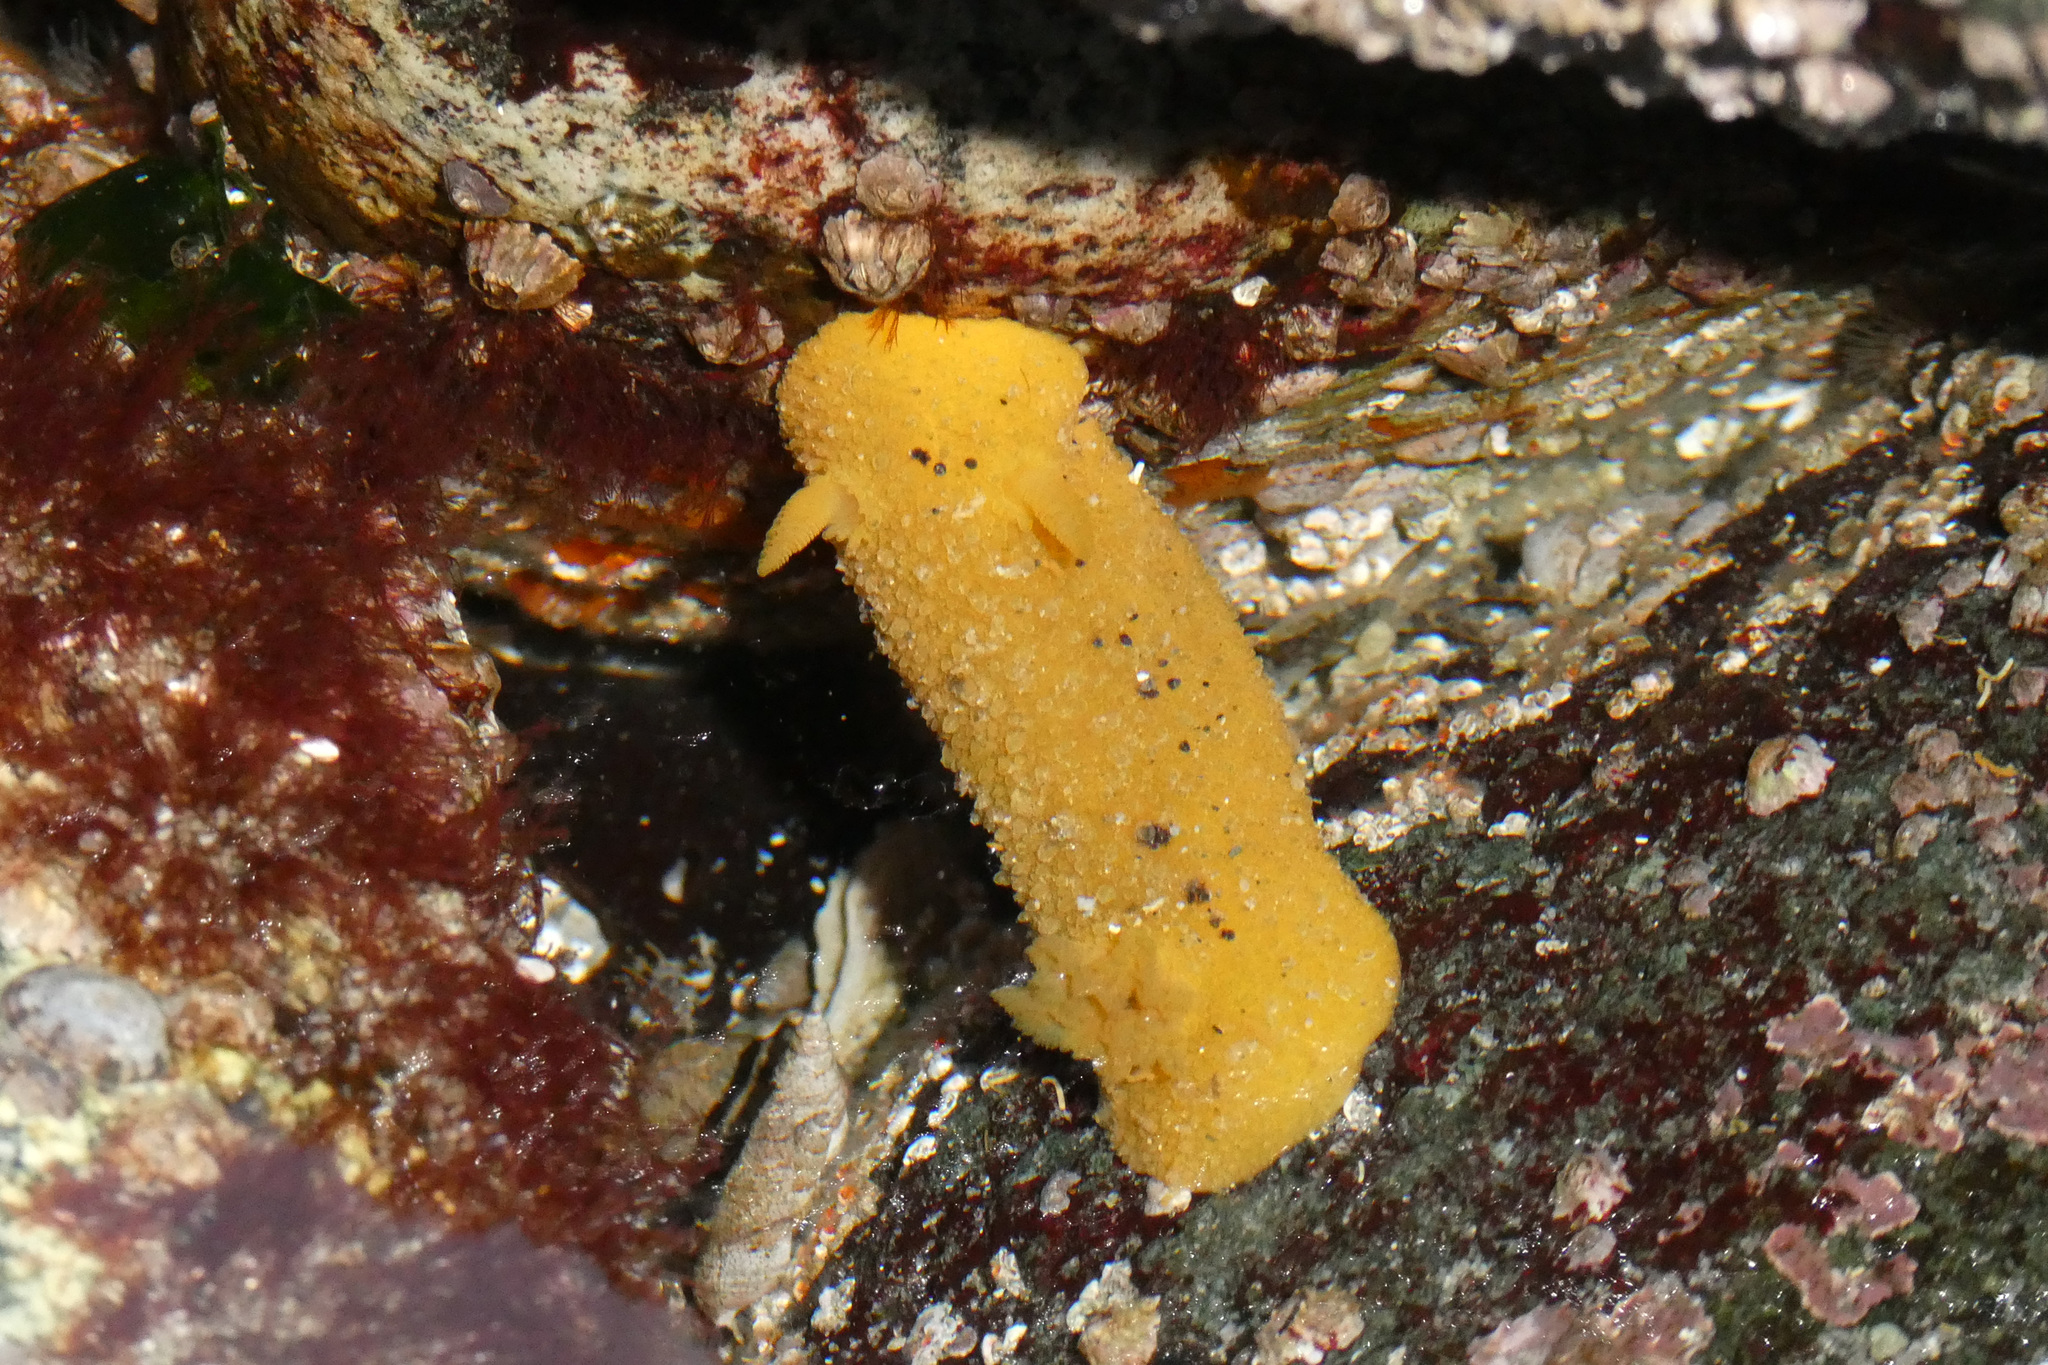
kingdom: Animalia
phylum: Mollusca
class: Gastropoda
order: Nudibranchia
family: Dorididae
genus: Doris
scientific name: Doris montereyensis
